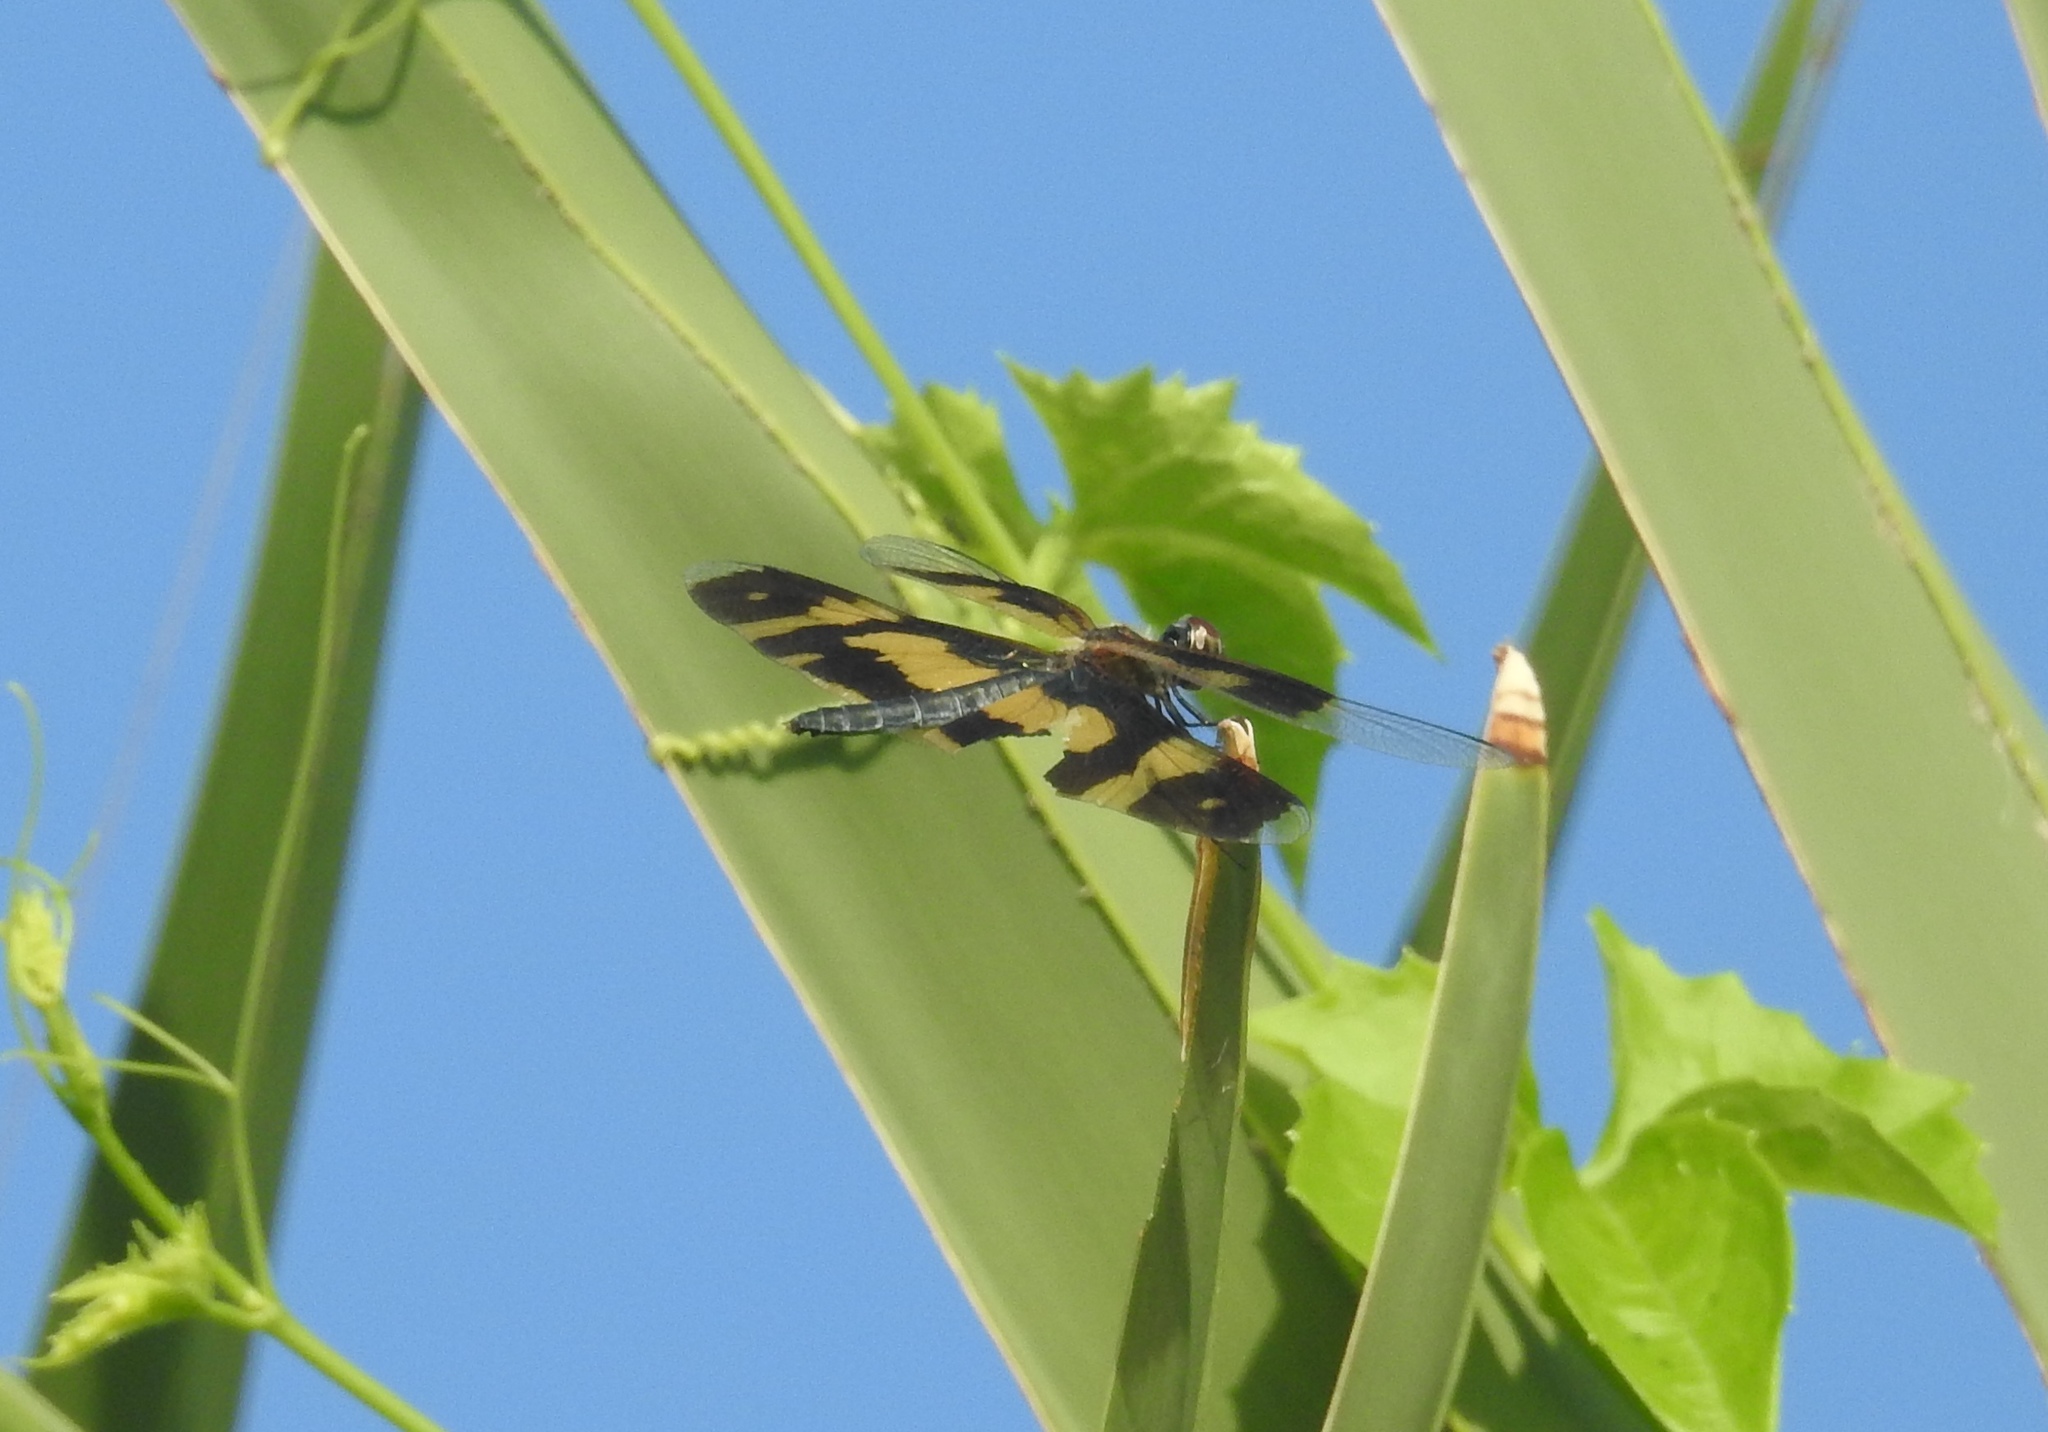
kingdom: Animalia
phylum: Arthropoda
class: Insecta
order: Odonata
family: Libellulidae
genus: Rhyothemis
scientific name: Rhyothemis variegata
